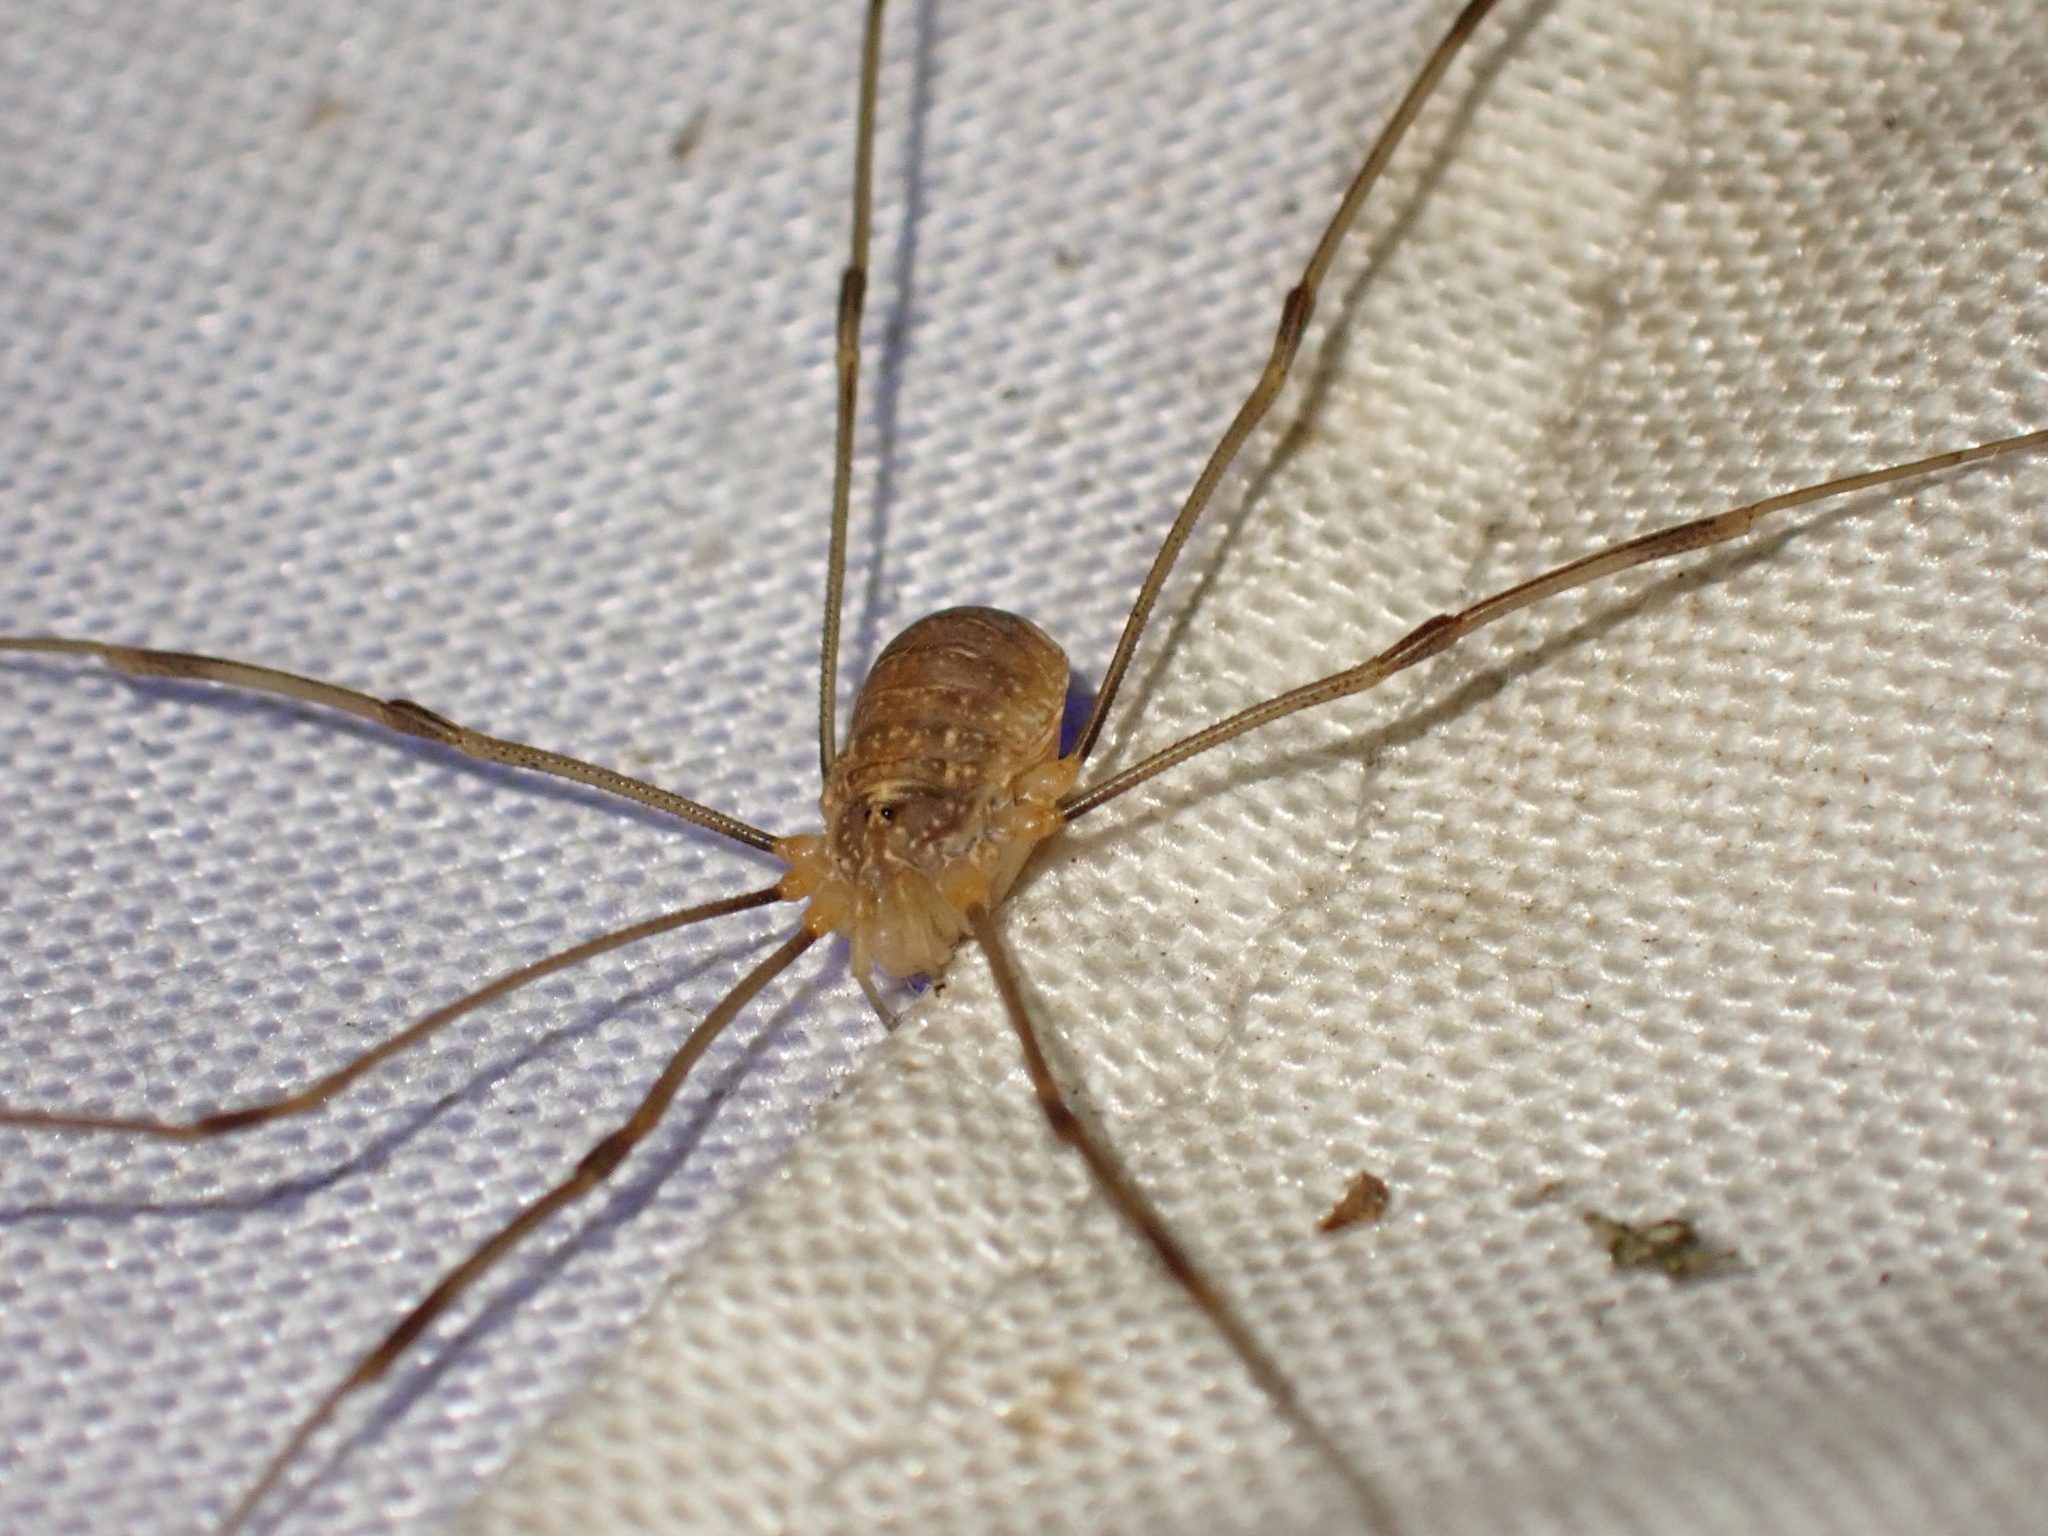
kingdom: Animalia
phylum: Arthropoda
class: Arachnida
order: Opiliones
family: Phalangiidae
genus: Opilio
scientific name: Opilio canestrinii
